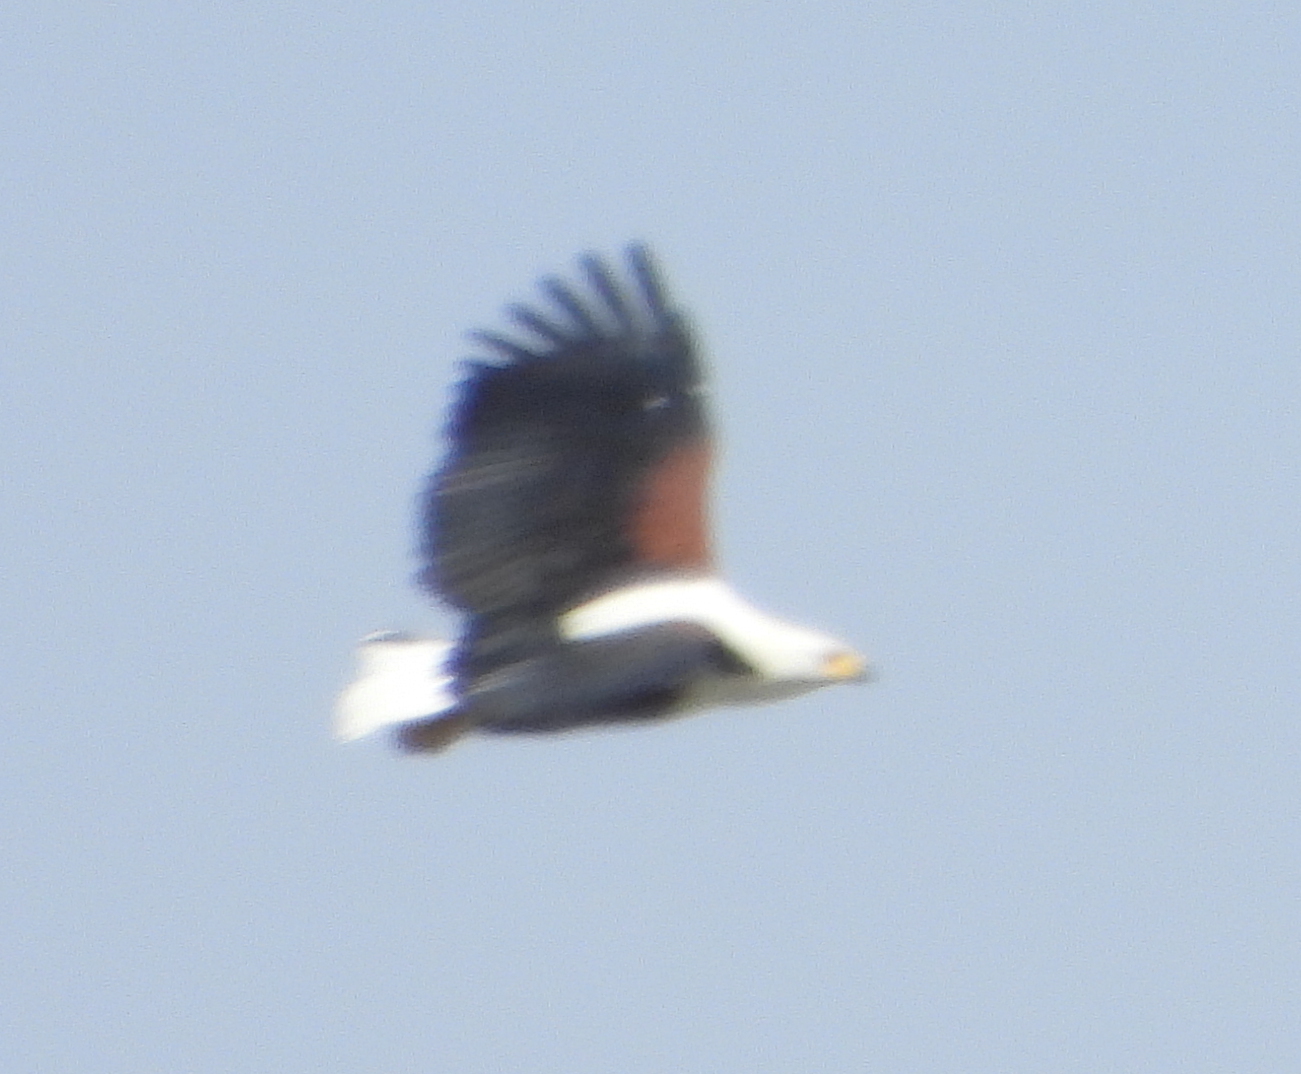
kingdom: Animalia
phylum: Chordata
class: Aves
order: Accipitriformes
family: Accipitridae
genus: Haliaeetus
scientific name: Haliaeetus vocifer
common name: African fish eagle
